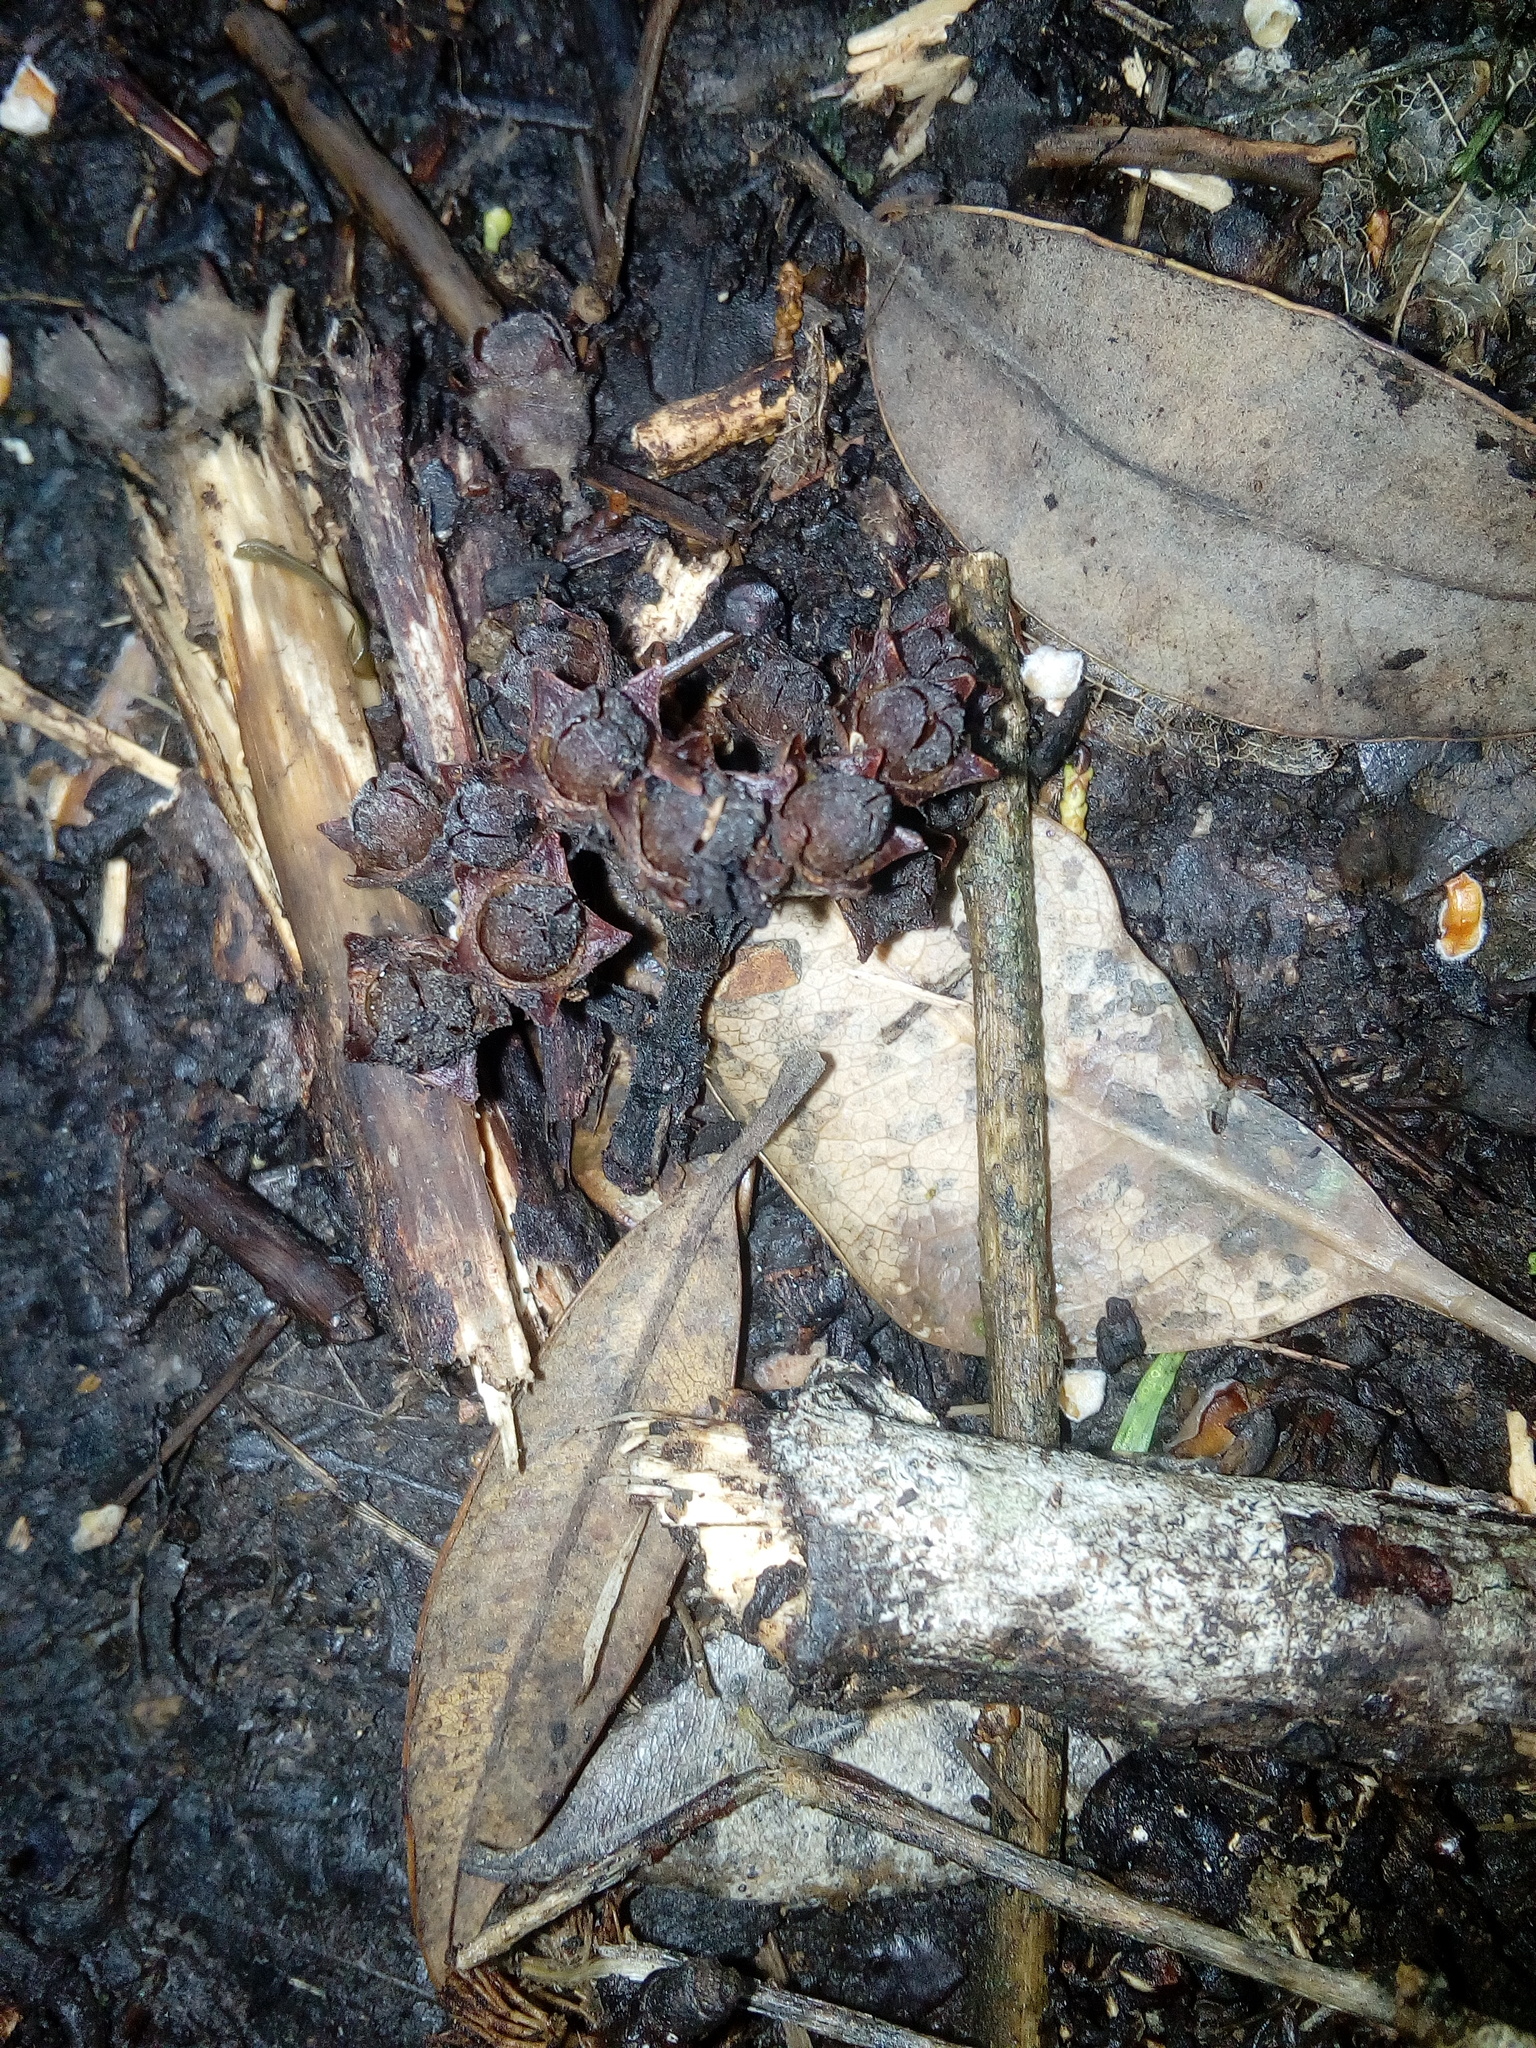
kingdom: Plantae
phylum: Tracheophyta
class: Magnoliopsida
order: Myrtales
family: Myrtaceae
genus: Metrosideros
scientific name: Metrosideros excelsa
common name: New zealand christmastree
